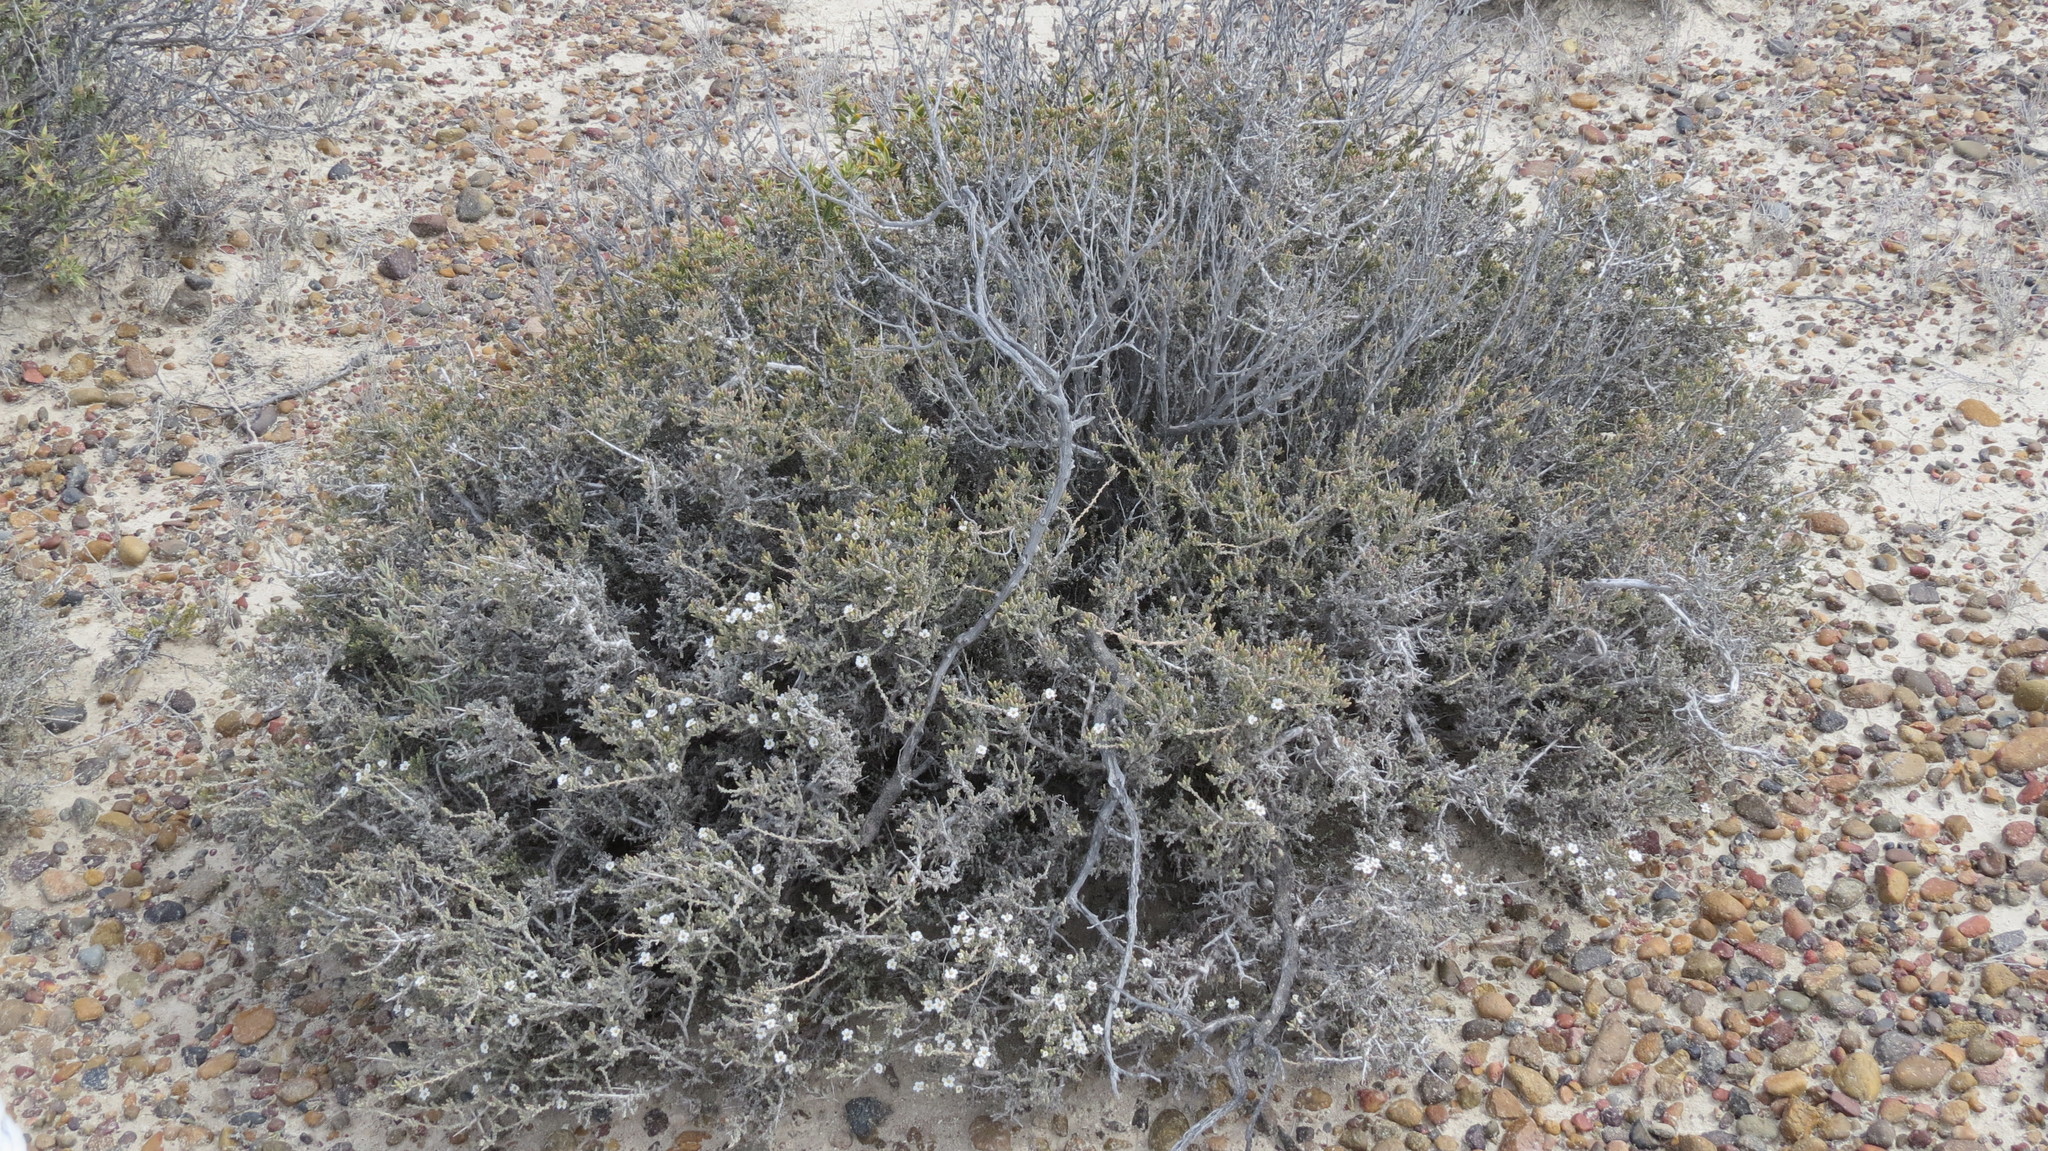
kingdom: Plantae
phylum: Tracheophyta
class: Magnoliopsida
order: Caryophyllales
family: Frankeniaceae
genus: Frankenia
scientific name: Frankenia patagonica
